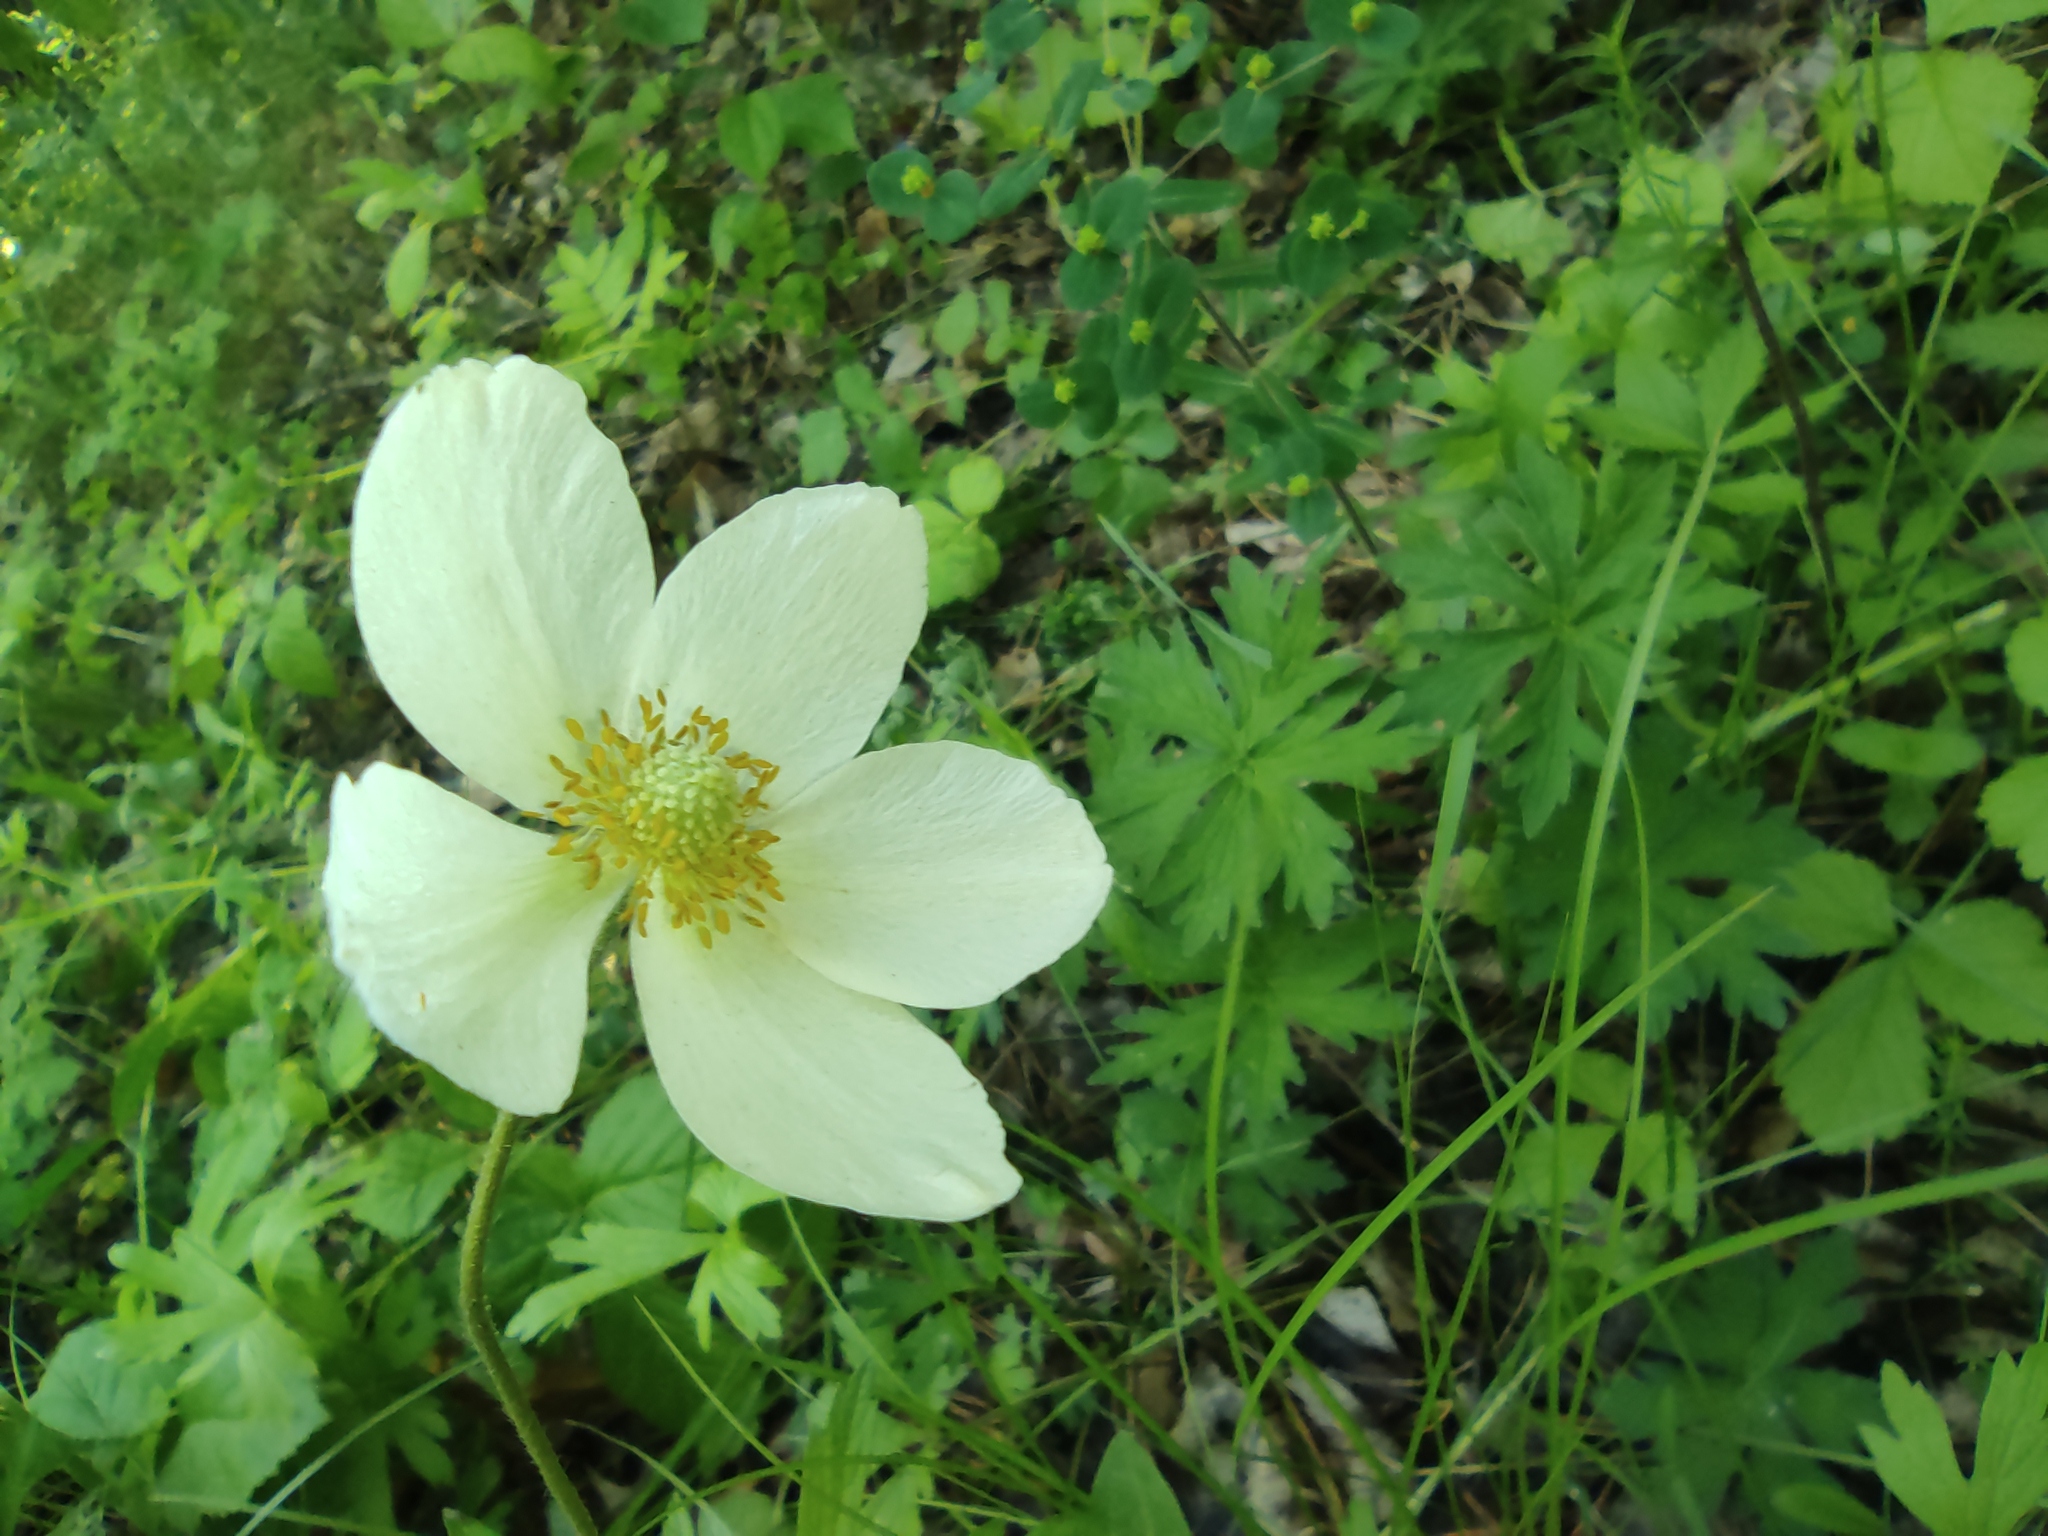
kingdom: Plantae
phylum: Tracheophyta
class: Magnoliopsida
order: Ranunculales
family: Ranunculaceae
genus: Anemone
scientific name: Anemone sylvestris
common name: Snowdrop anemone
